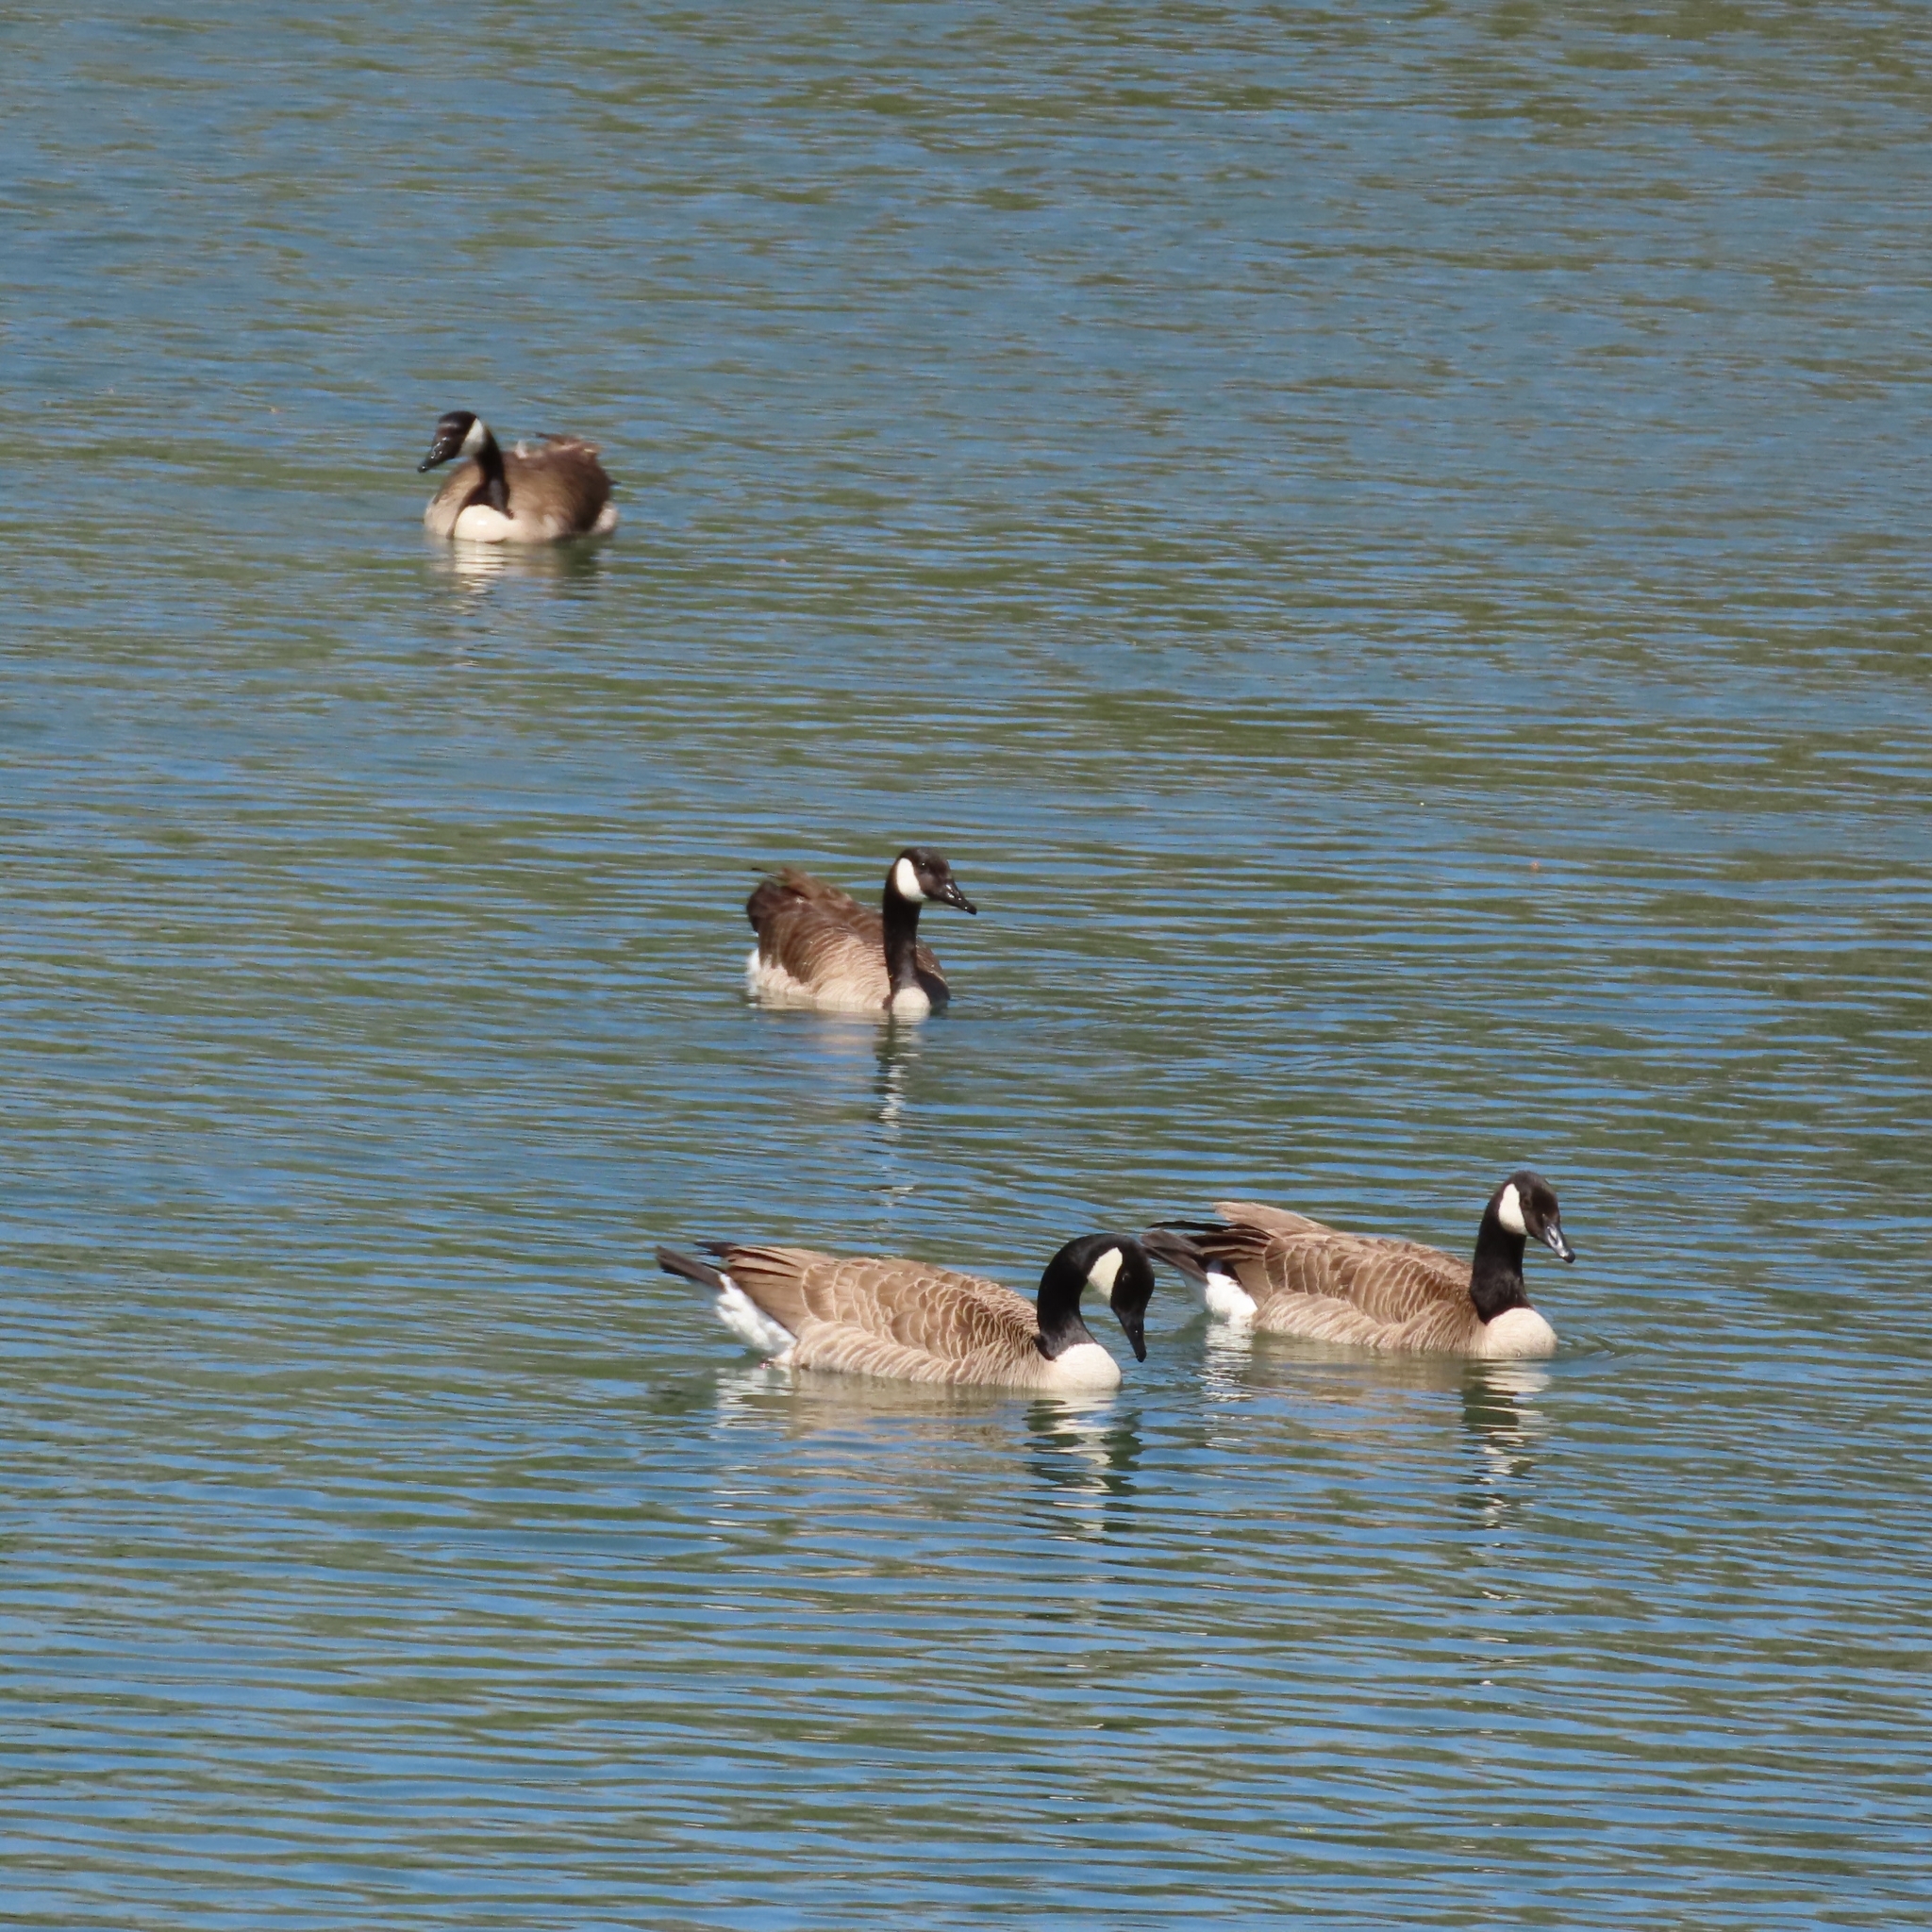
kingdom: Animalia
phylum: Chordata
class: Aves
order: Anseriformes
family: Anatidae
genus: Branta
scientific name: Branta canadensis
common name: Canada goose
